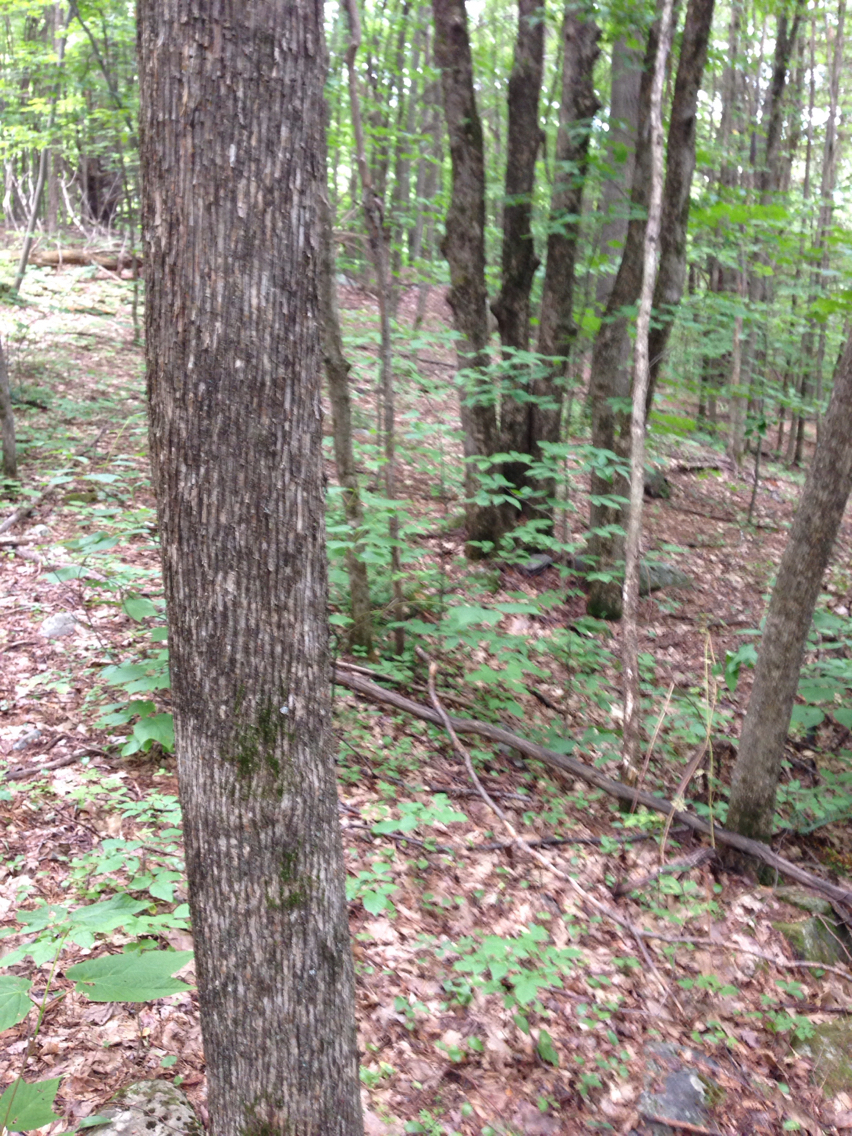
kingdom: Plantae
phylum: Tracheophyta
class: Magnoliopsida
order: Fagales
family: Betulaceae
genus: Ostrya
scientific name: Ostrya virginiana
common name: Ironwood
